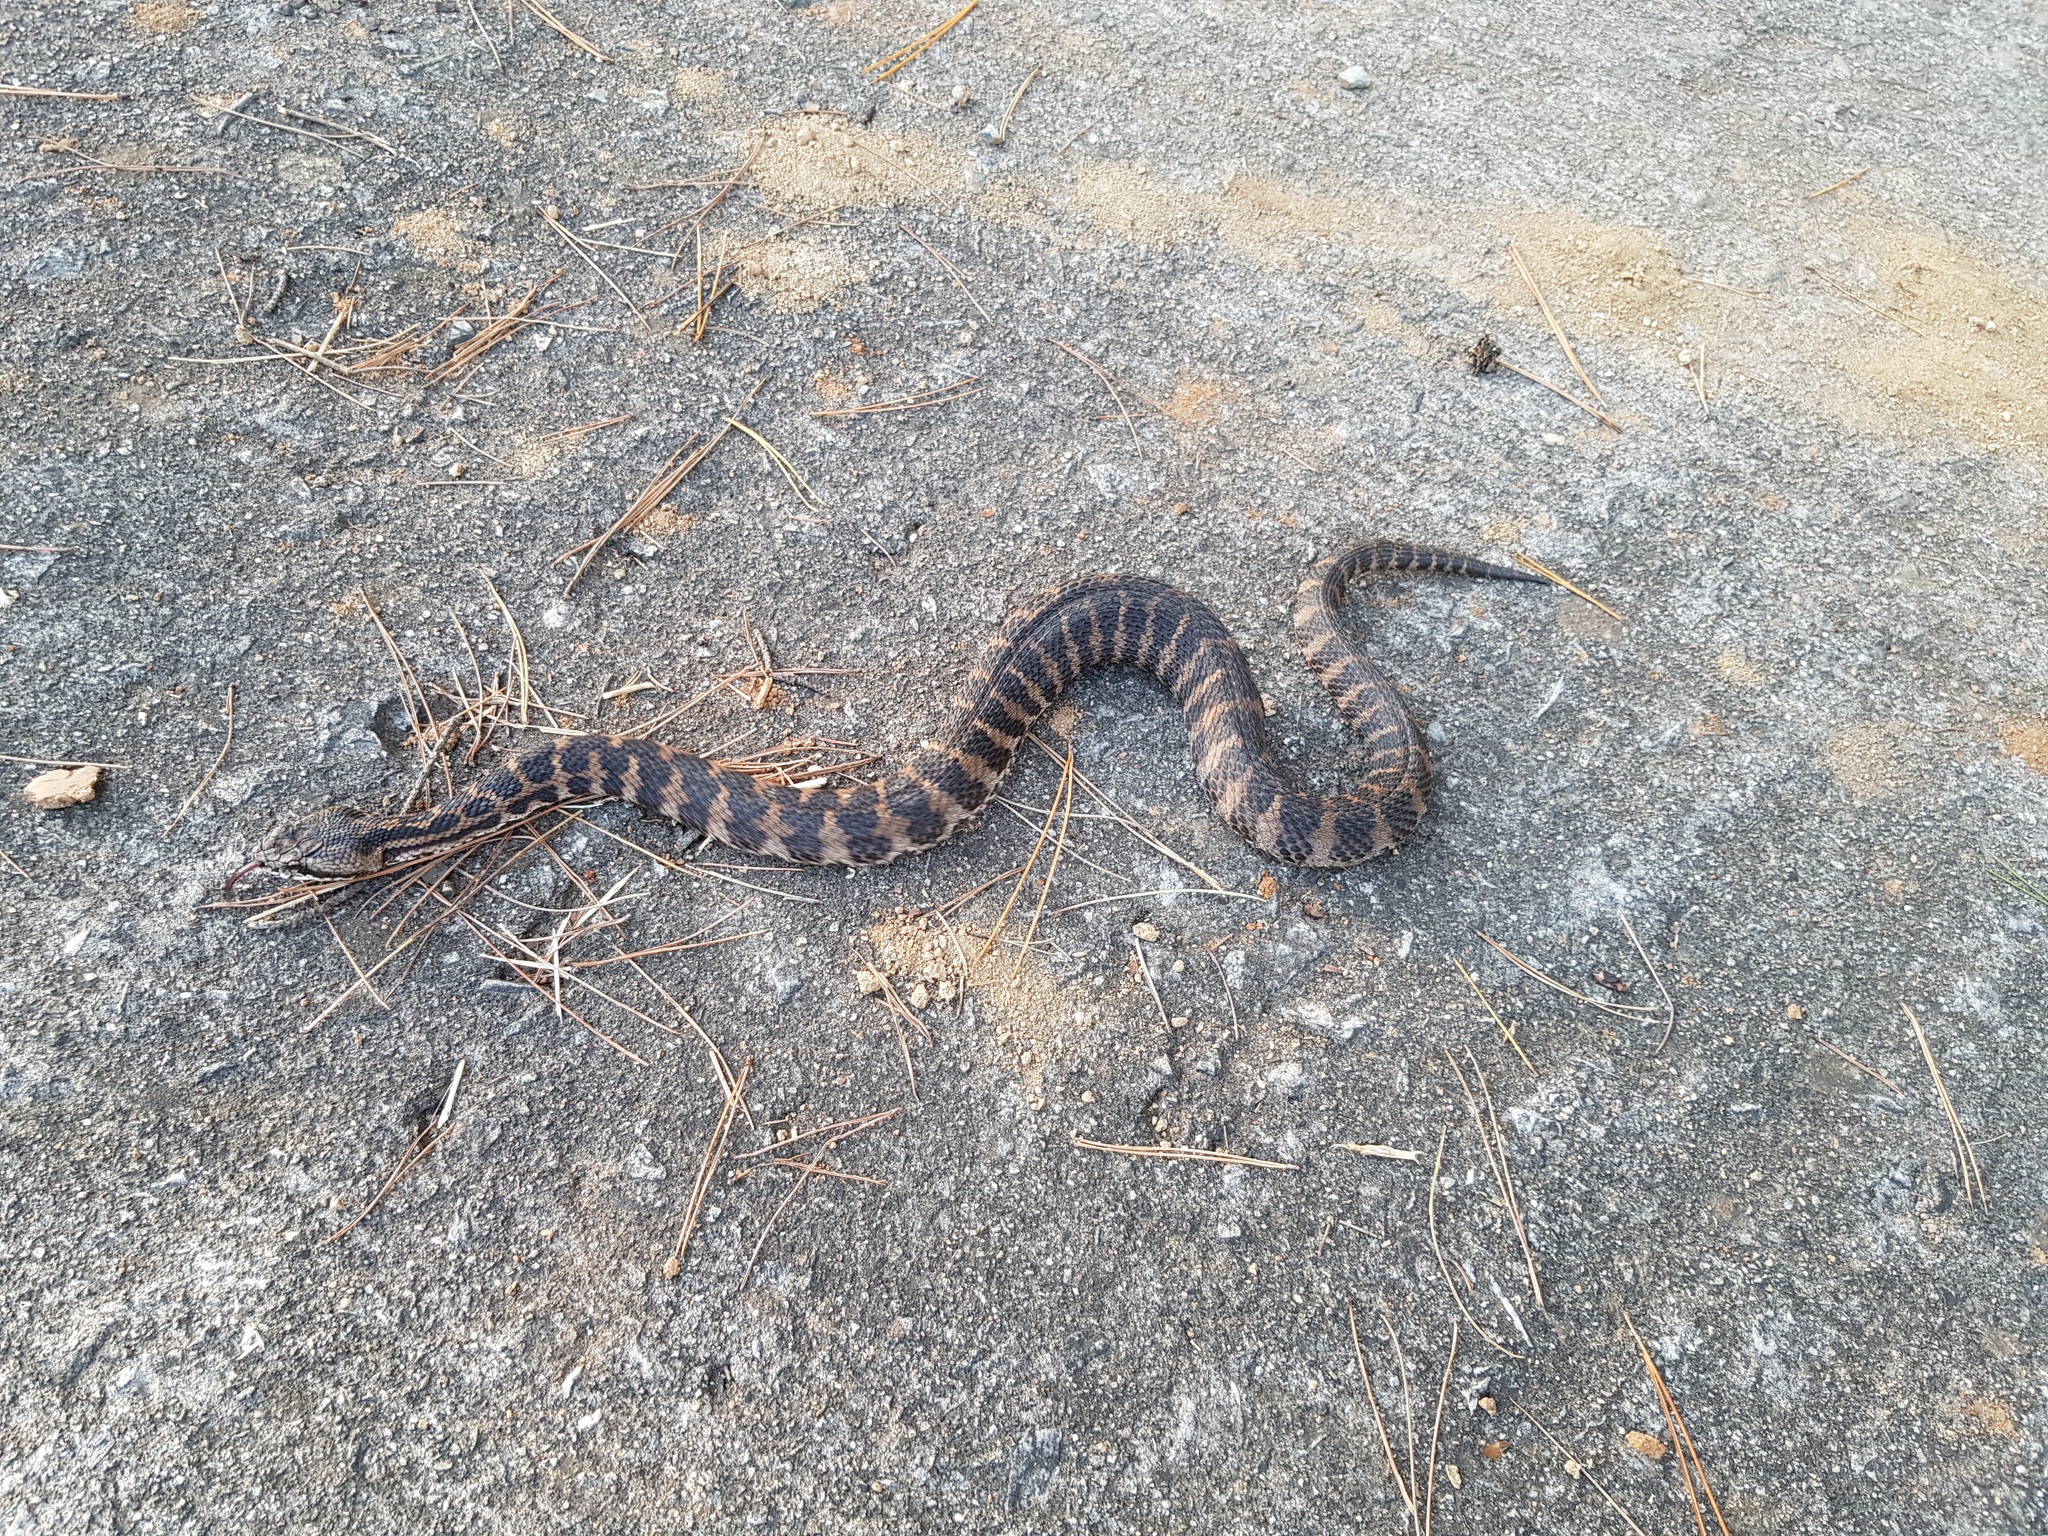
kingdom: Animalia
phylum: Chordata
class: Squamata
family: Viperidae
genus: Gloydius
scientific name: Gloydius intermedius
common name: Central asian pit viper
